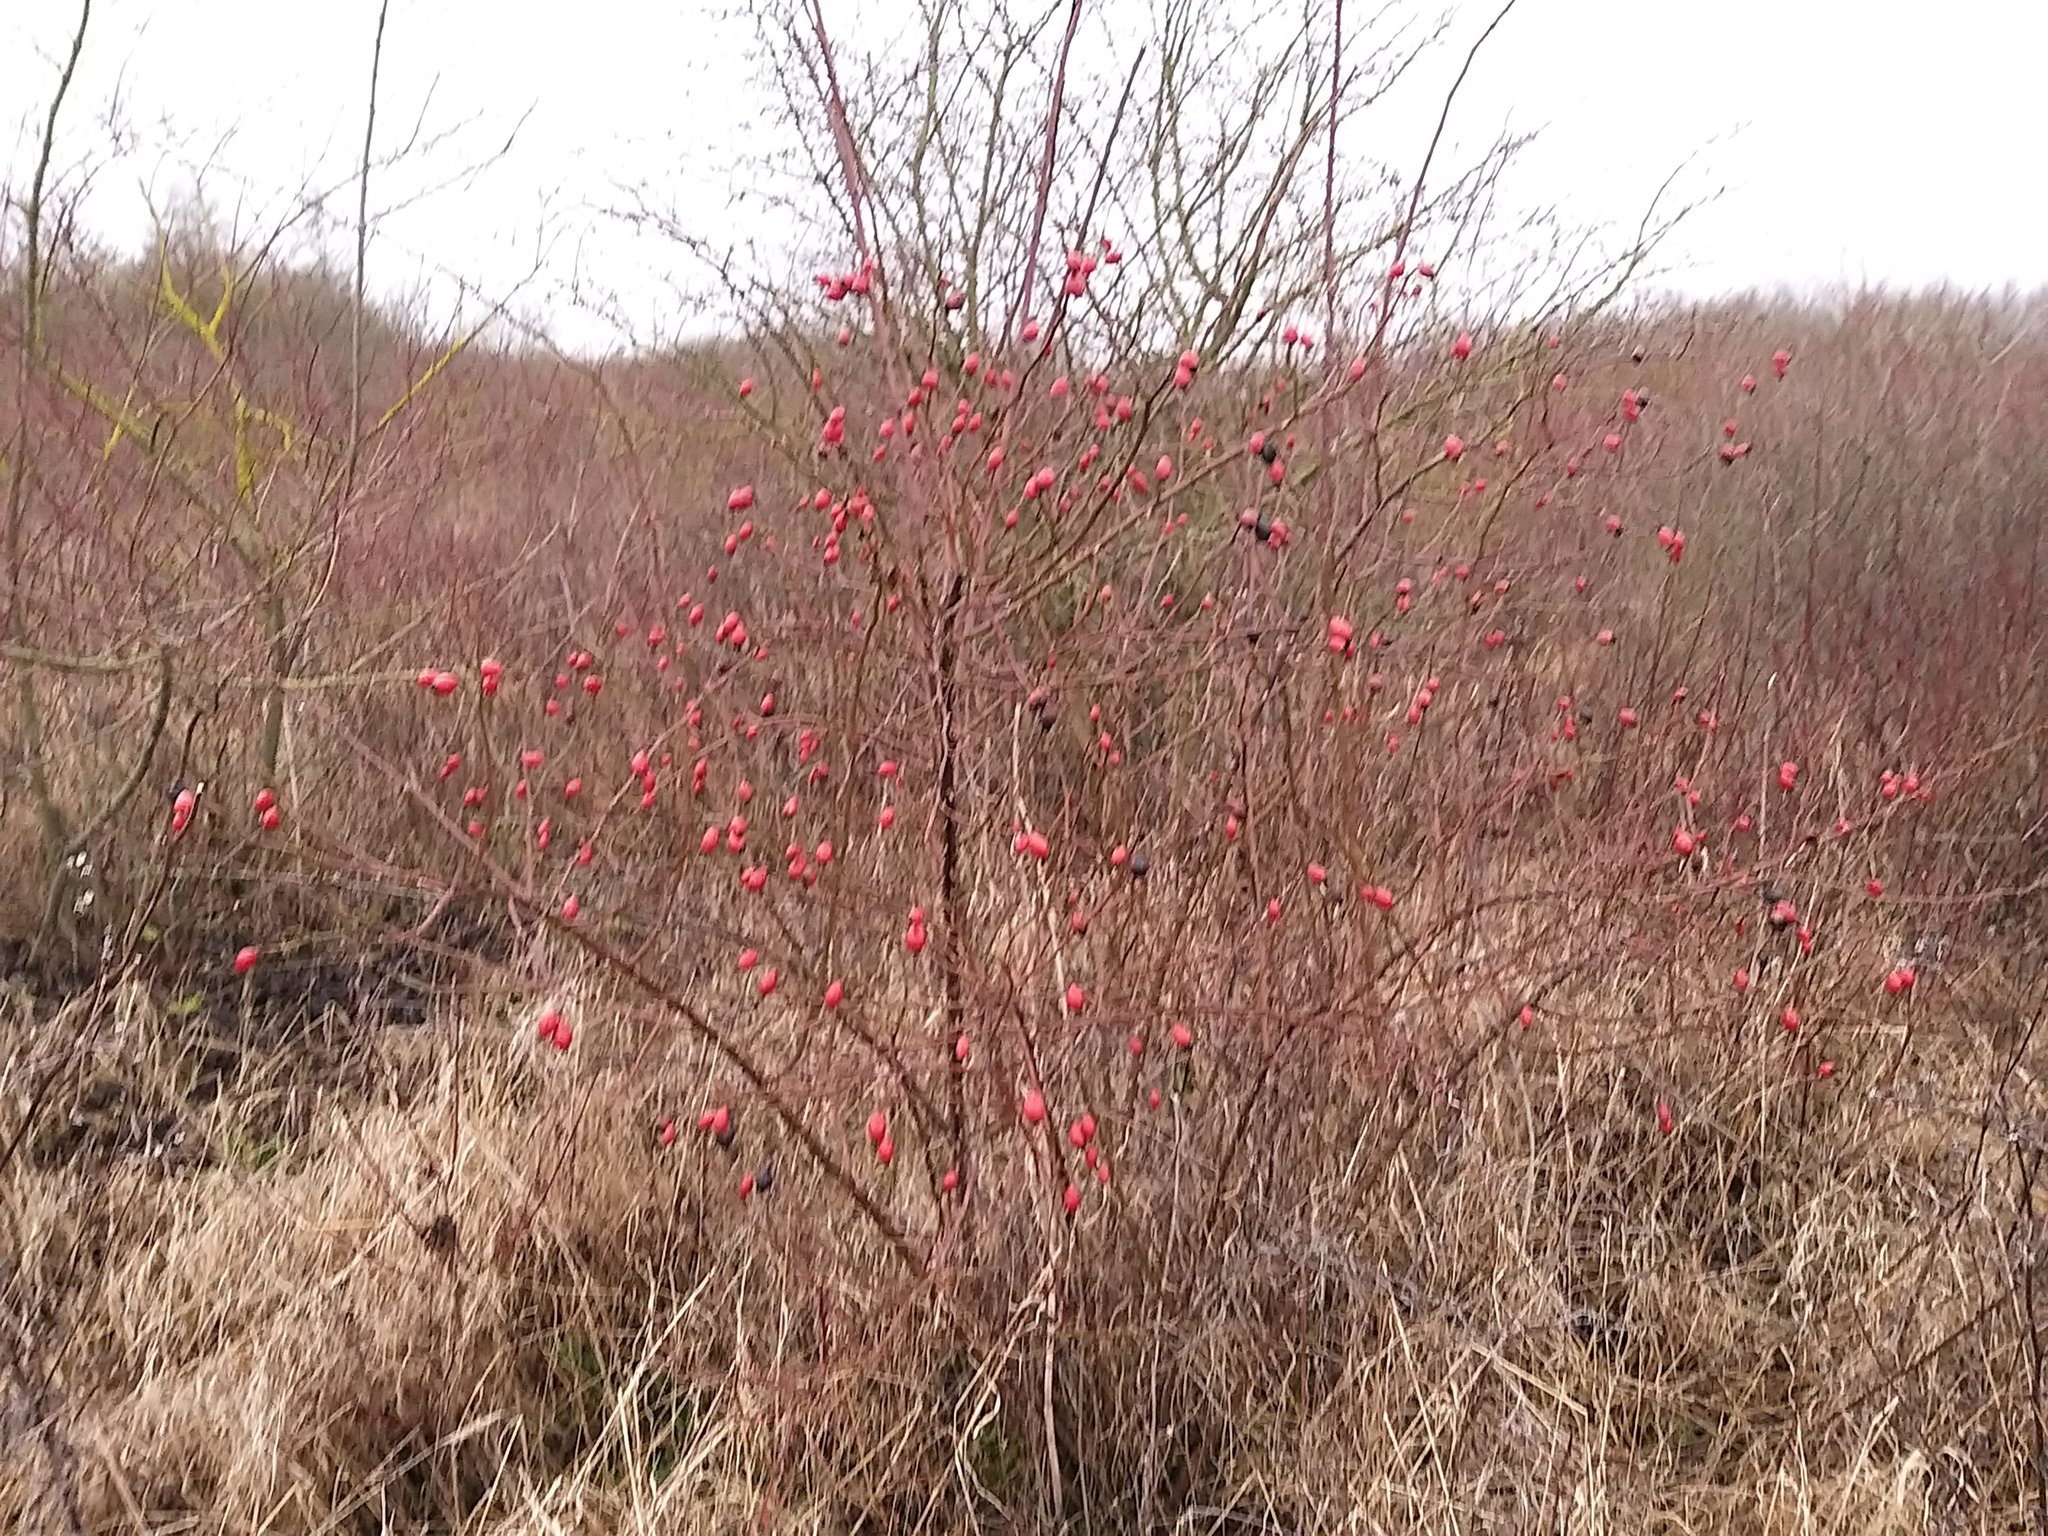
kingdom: Plantae
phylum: Tracheophyta
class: Magnoliopsida
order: Rosales
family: Rosaceae
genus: Rosa
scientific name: Rosa canina
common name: Dog rose
